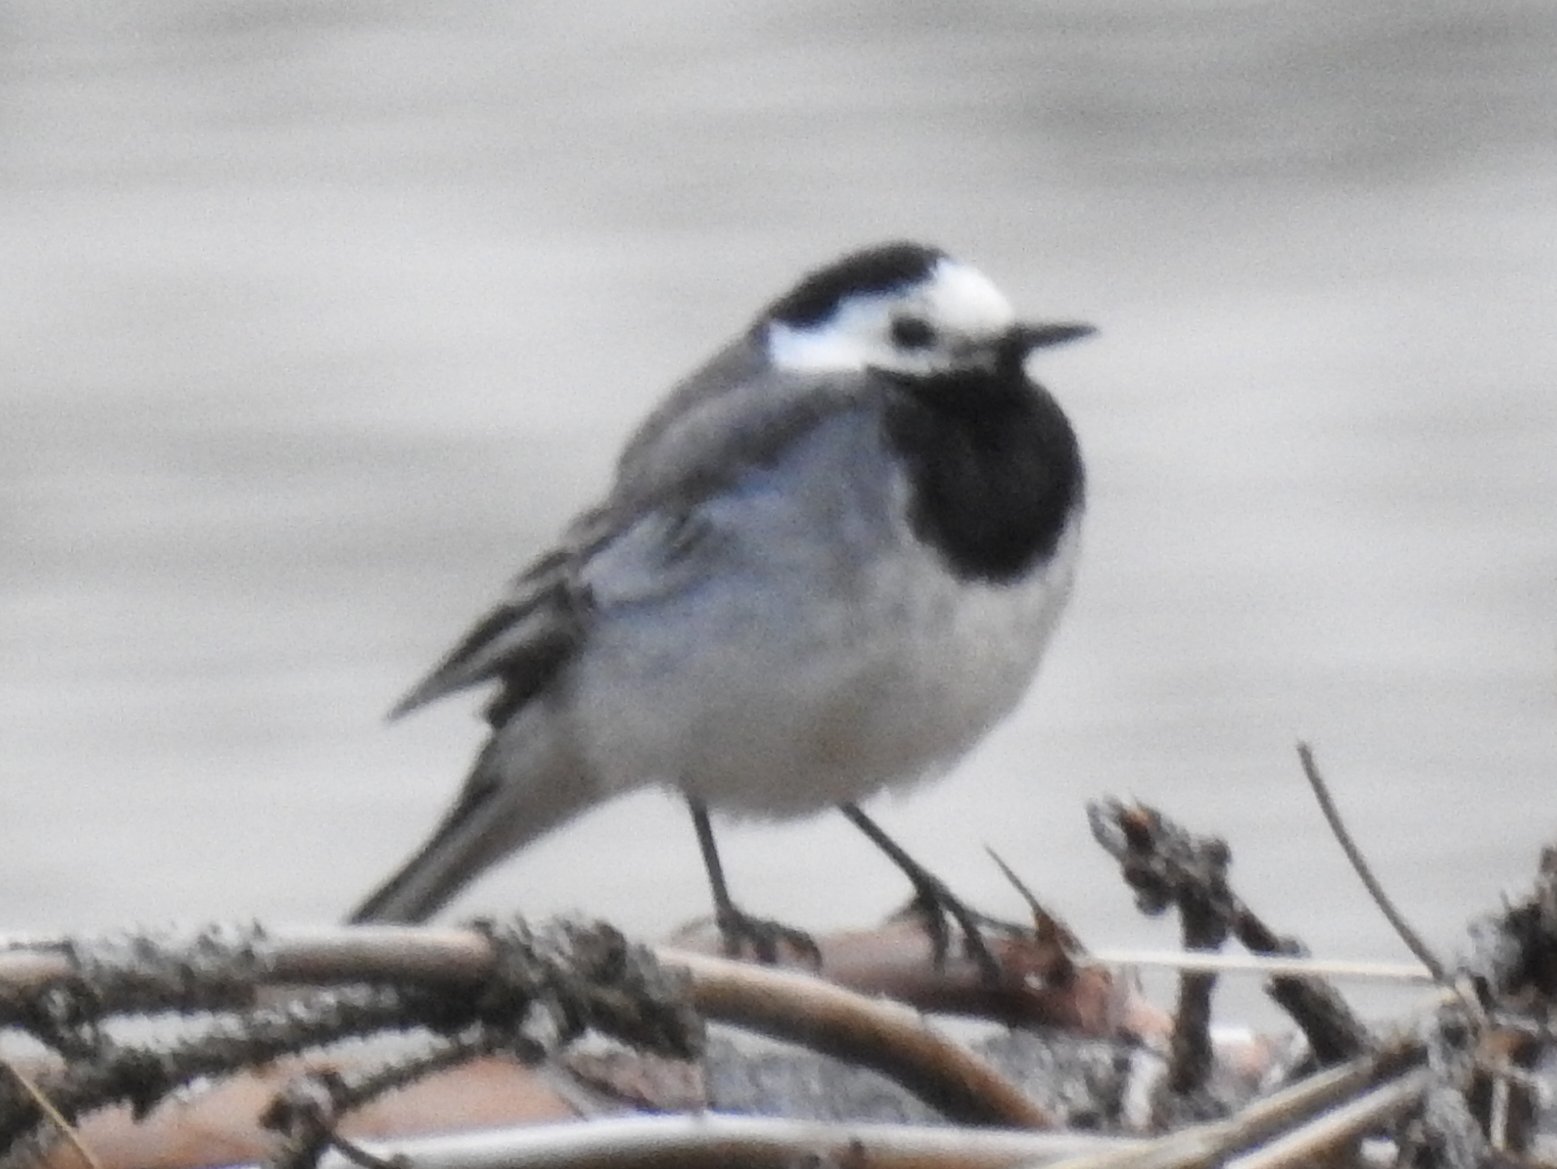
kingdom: Animalia
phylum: Chordata
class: Aves
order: Passeriformes
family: Motacillidae
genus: Motacilla
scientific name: Motacilla alba
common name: White wagtail
